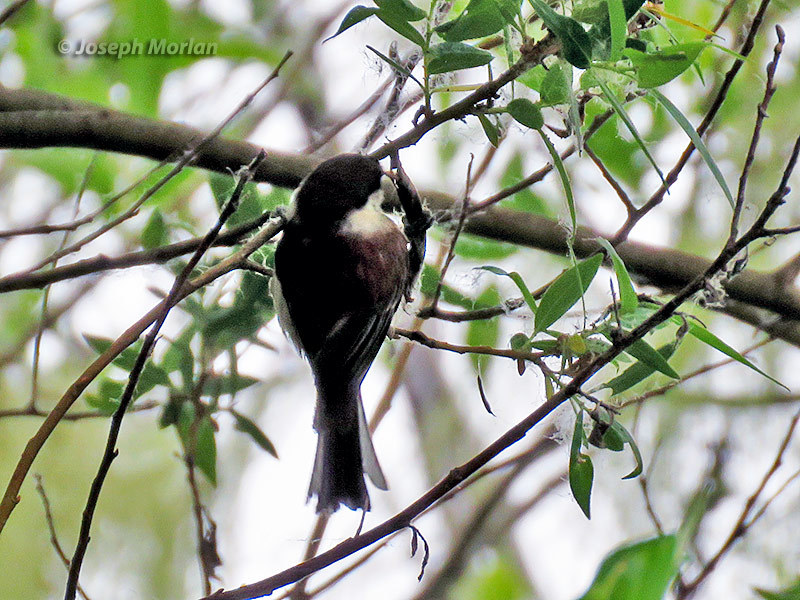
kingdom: Animalia
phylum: Chordata
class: Aves
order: Passeriformes
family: Paridae
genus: Poecile
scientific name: Poecile rufescens
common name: Chestnut-backed chickadee
